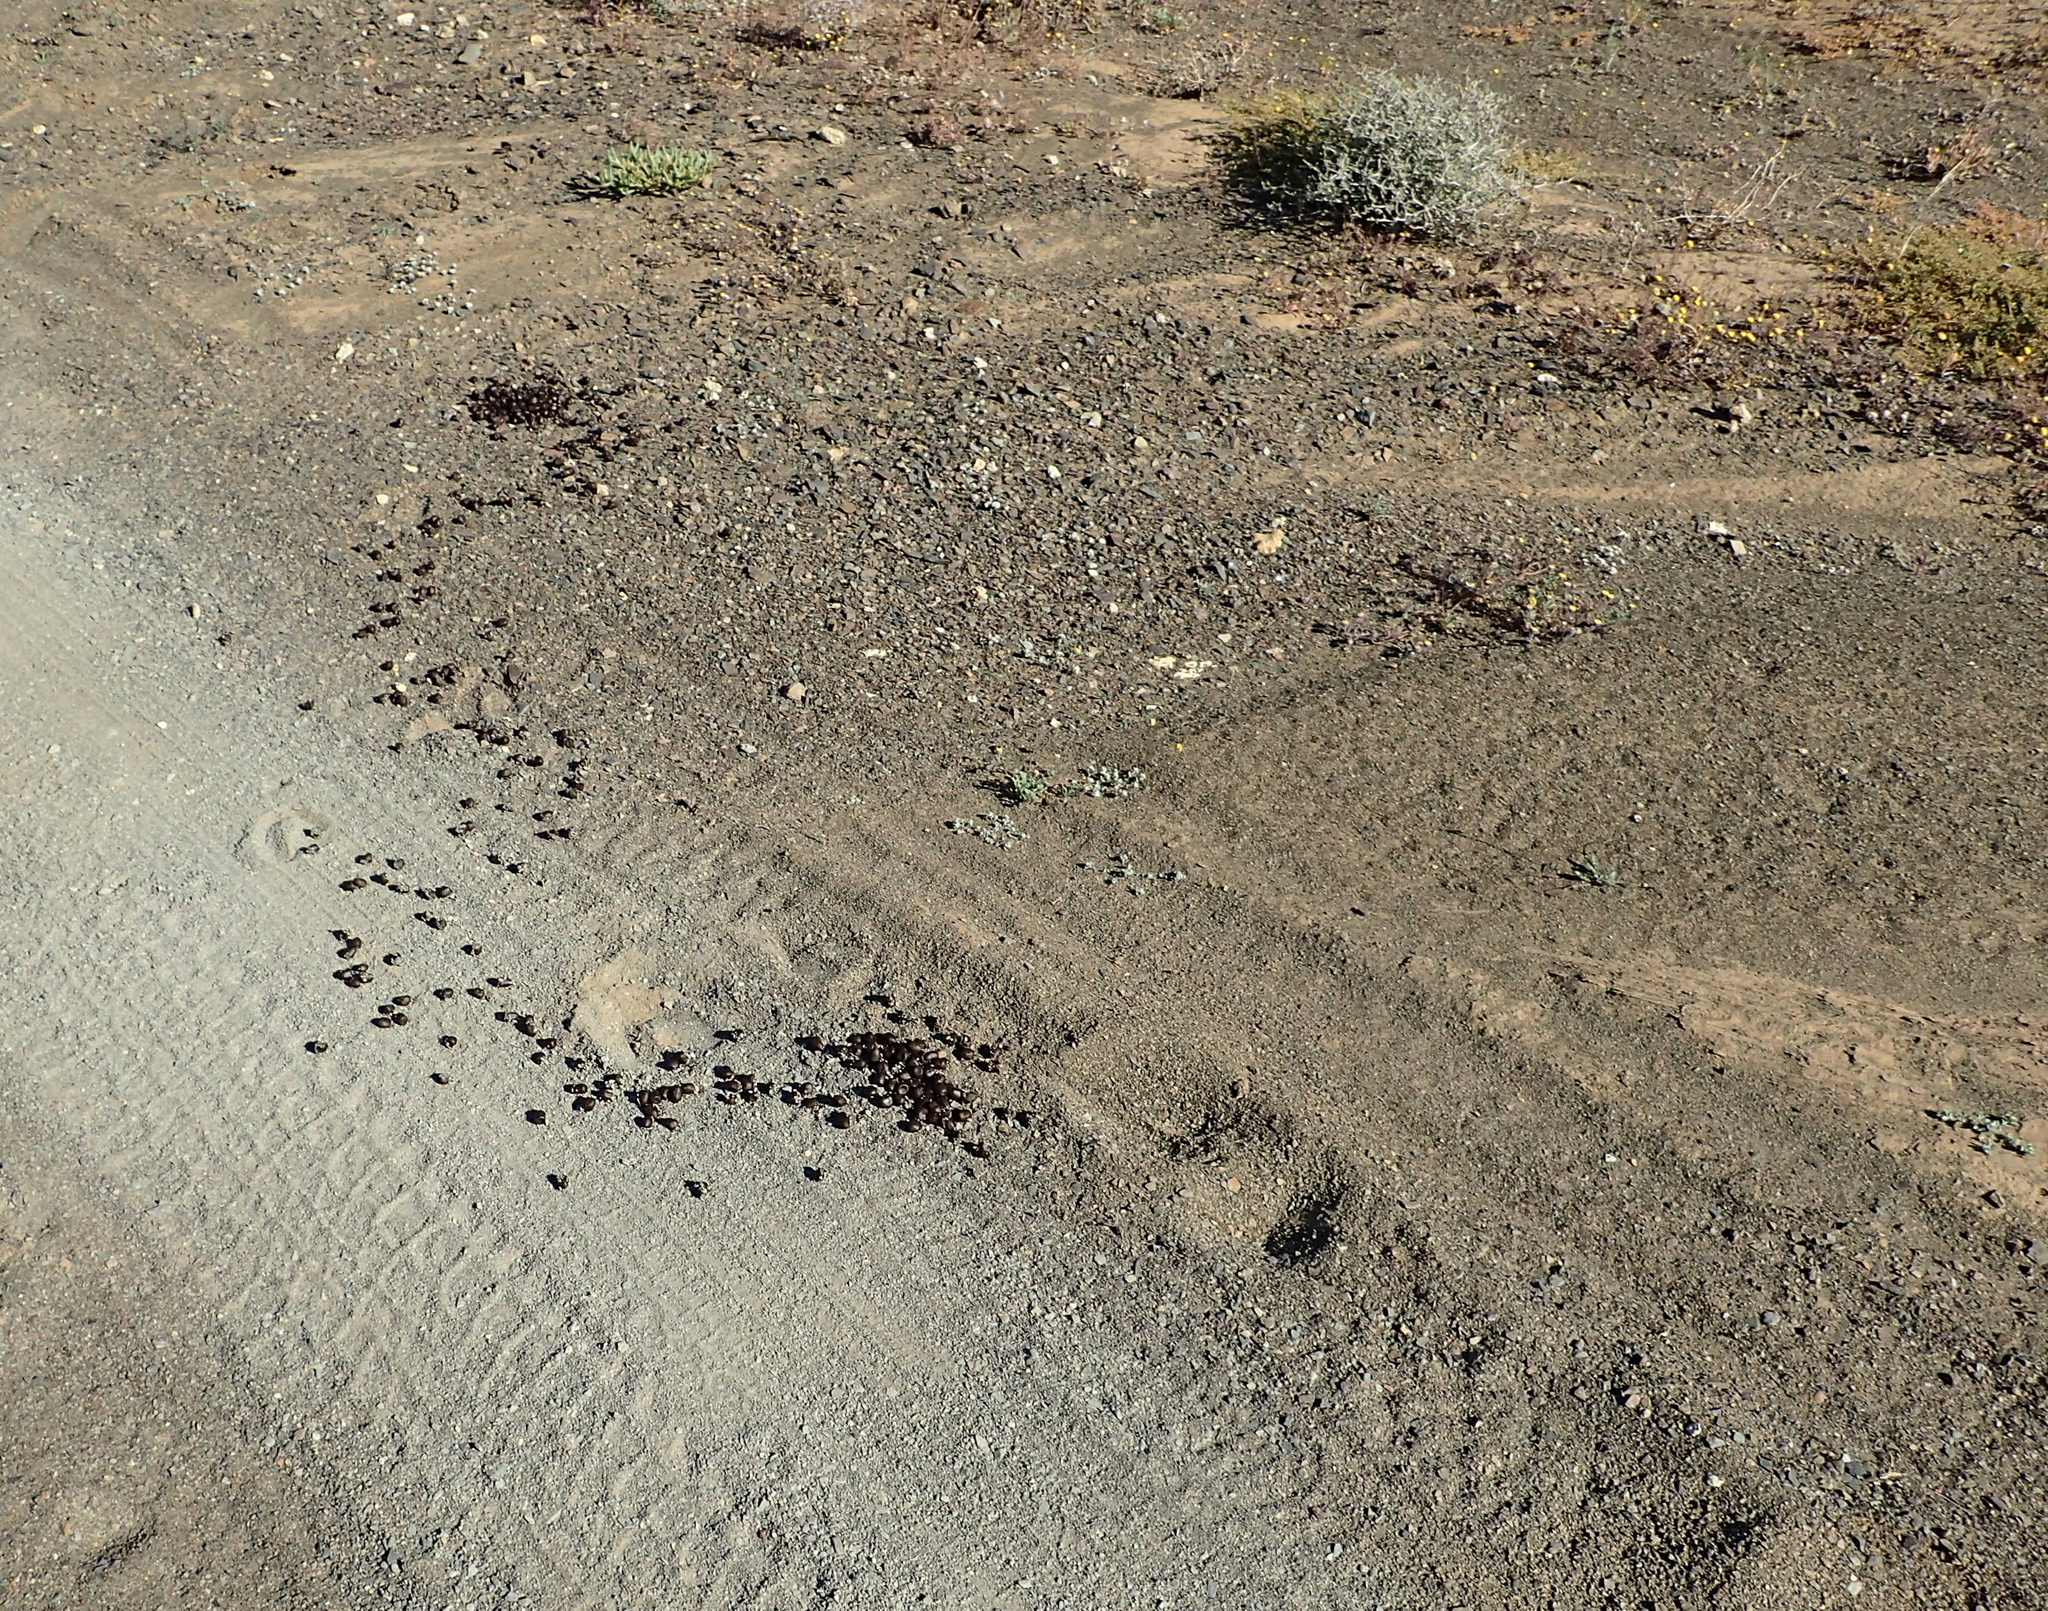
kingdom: Animalia
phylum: Chordata
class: Mammalia
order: Artiodactyla
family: Bovidae
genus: Oryx
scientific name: Oryx gazella
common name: Gemsbok
